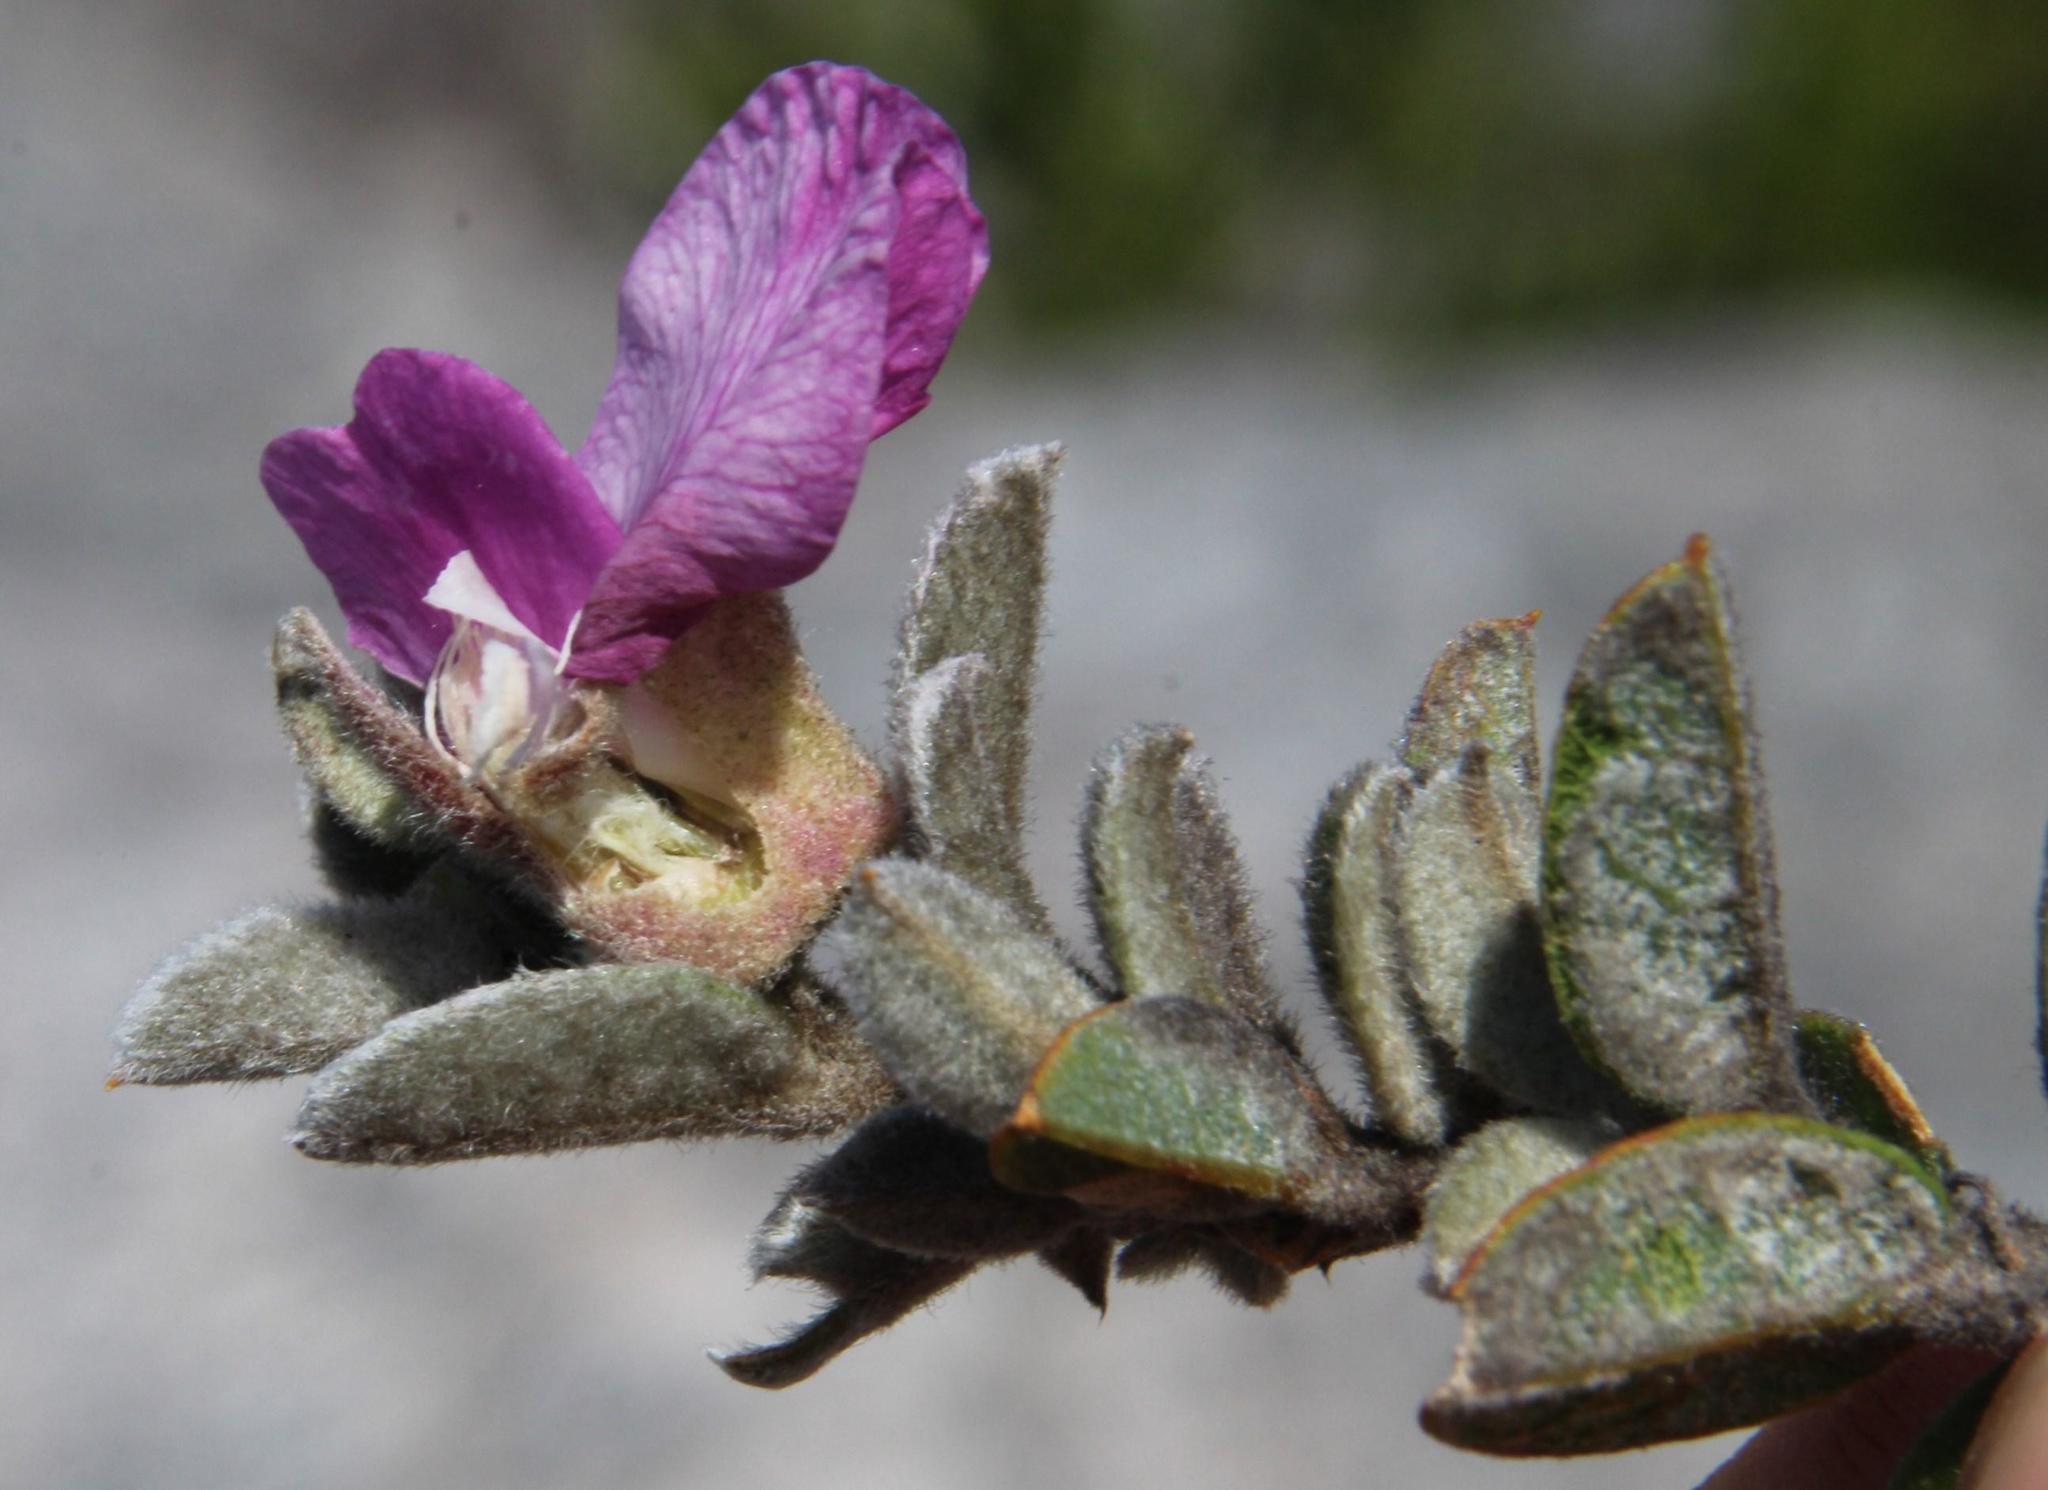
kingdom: Plantae
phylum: Tracheophyta
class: Magnoliopsida
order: Fabales
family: Fabaceae
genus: Podalyria
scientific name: Podalyria burchellii
